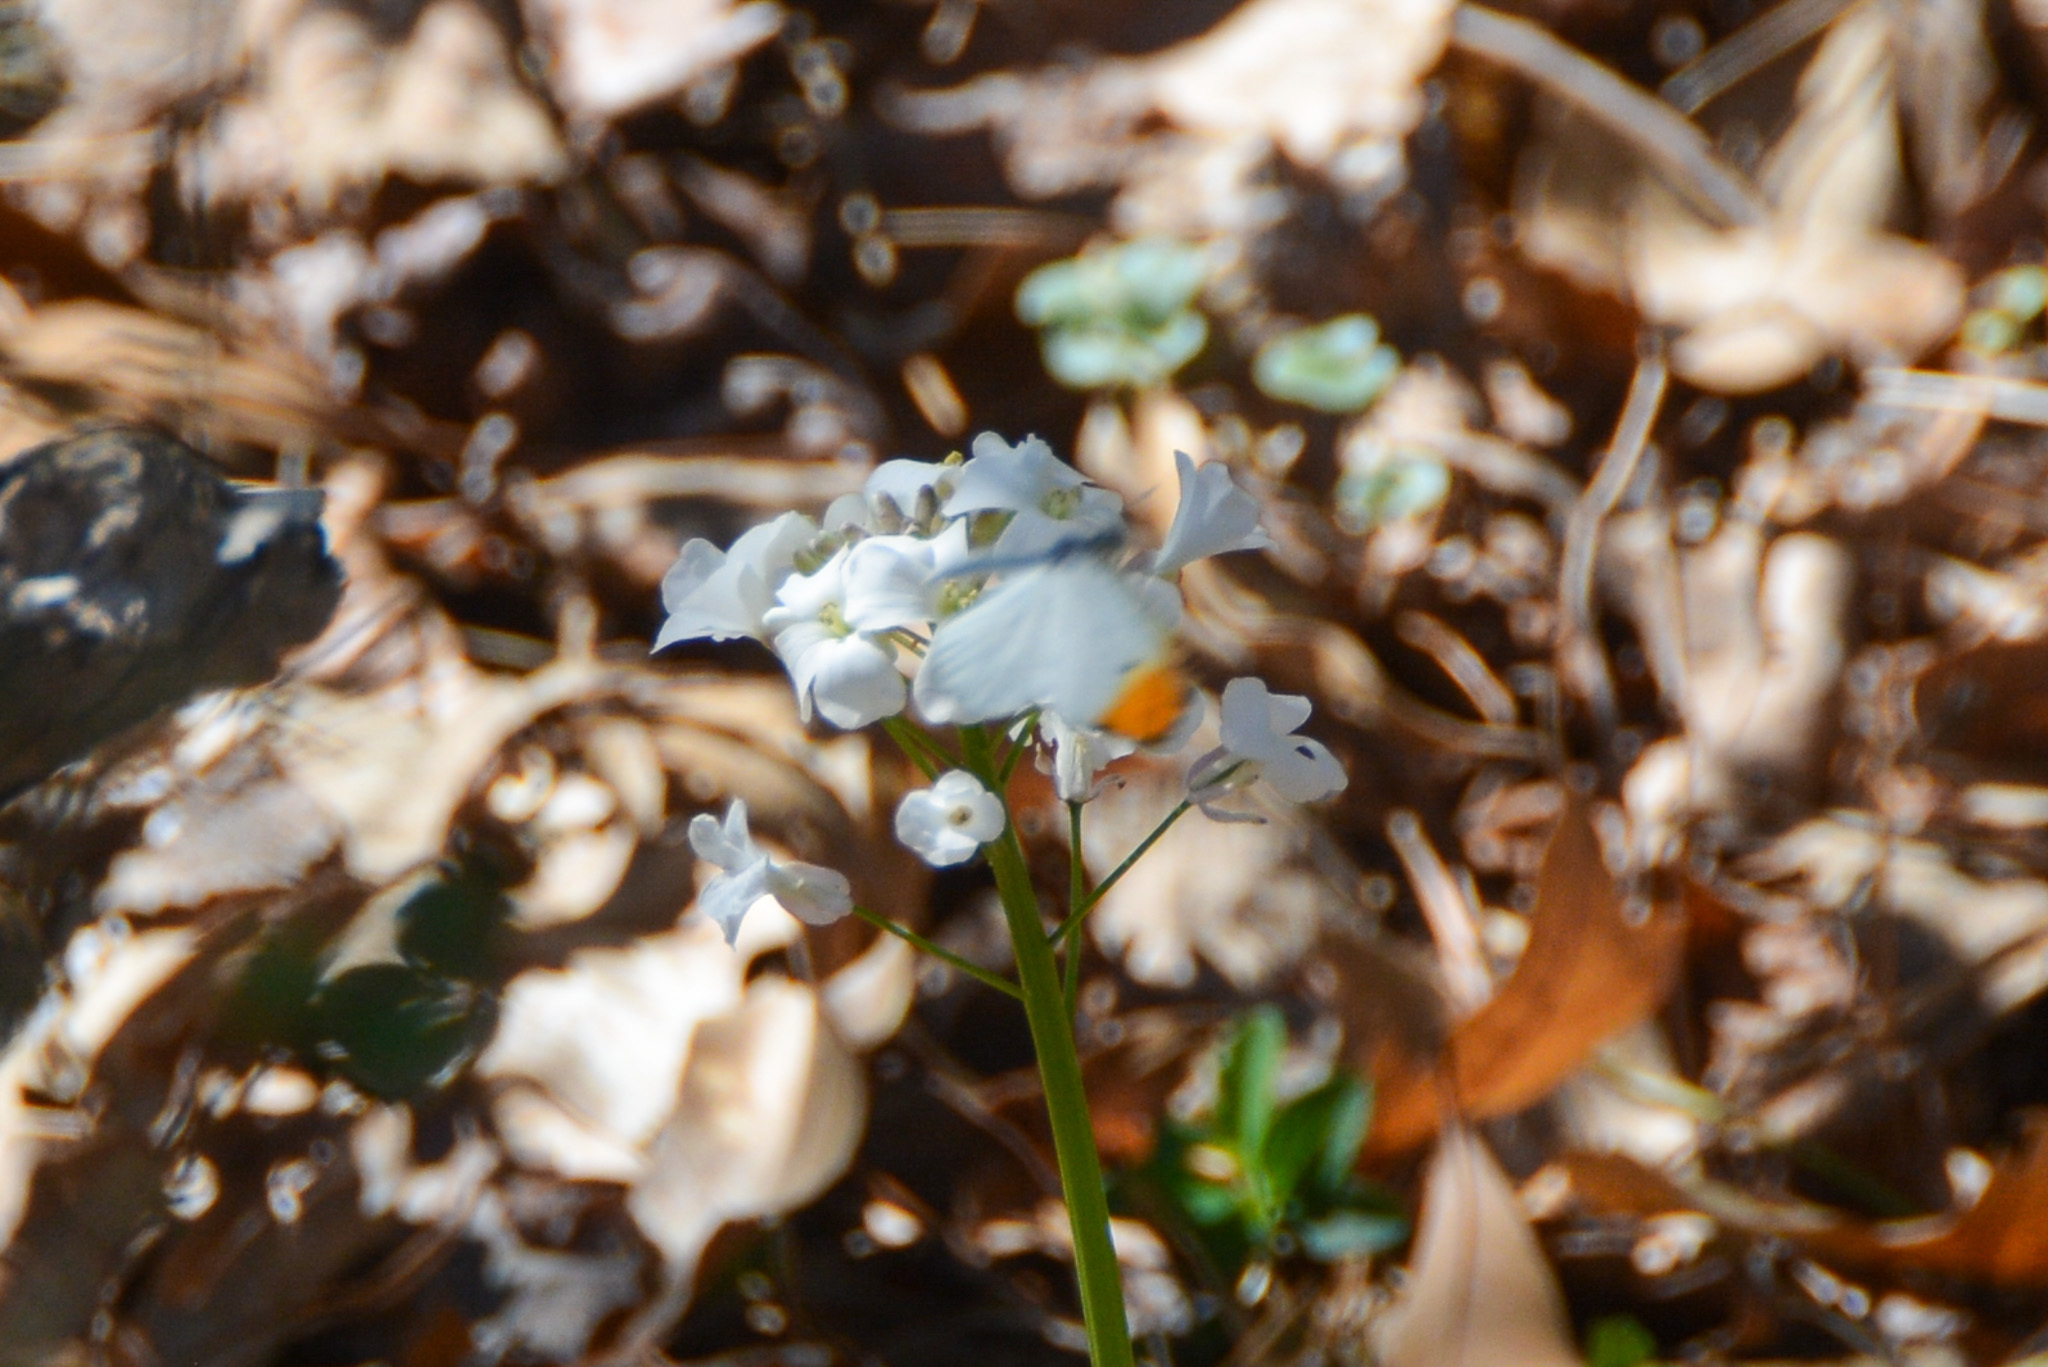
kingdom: Animalia
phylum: Arthropoda
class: Insecta
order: Lepidoptera
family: Pieridae
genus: Anthocharis
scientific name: Anthocharis midea
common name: Falcate orangetip
